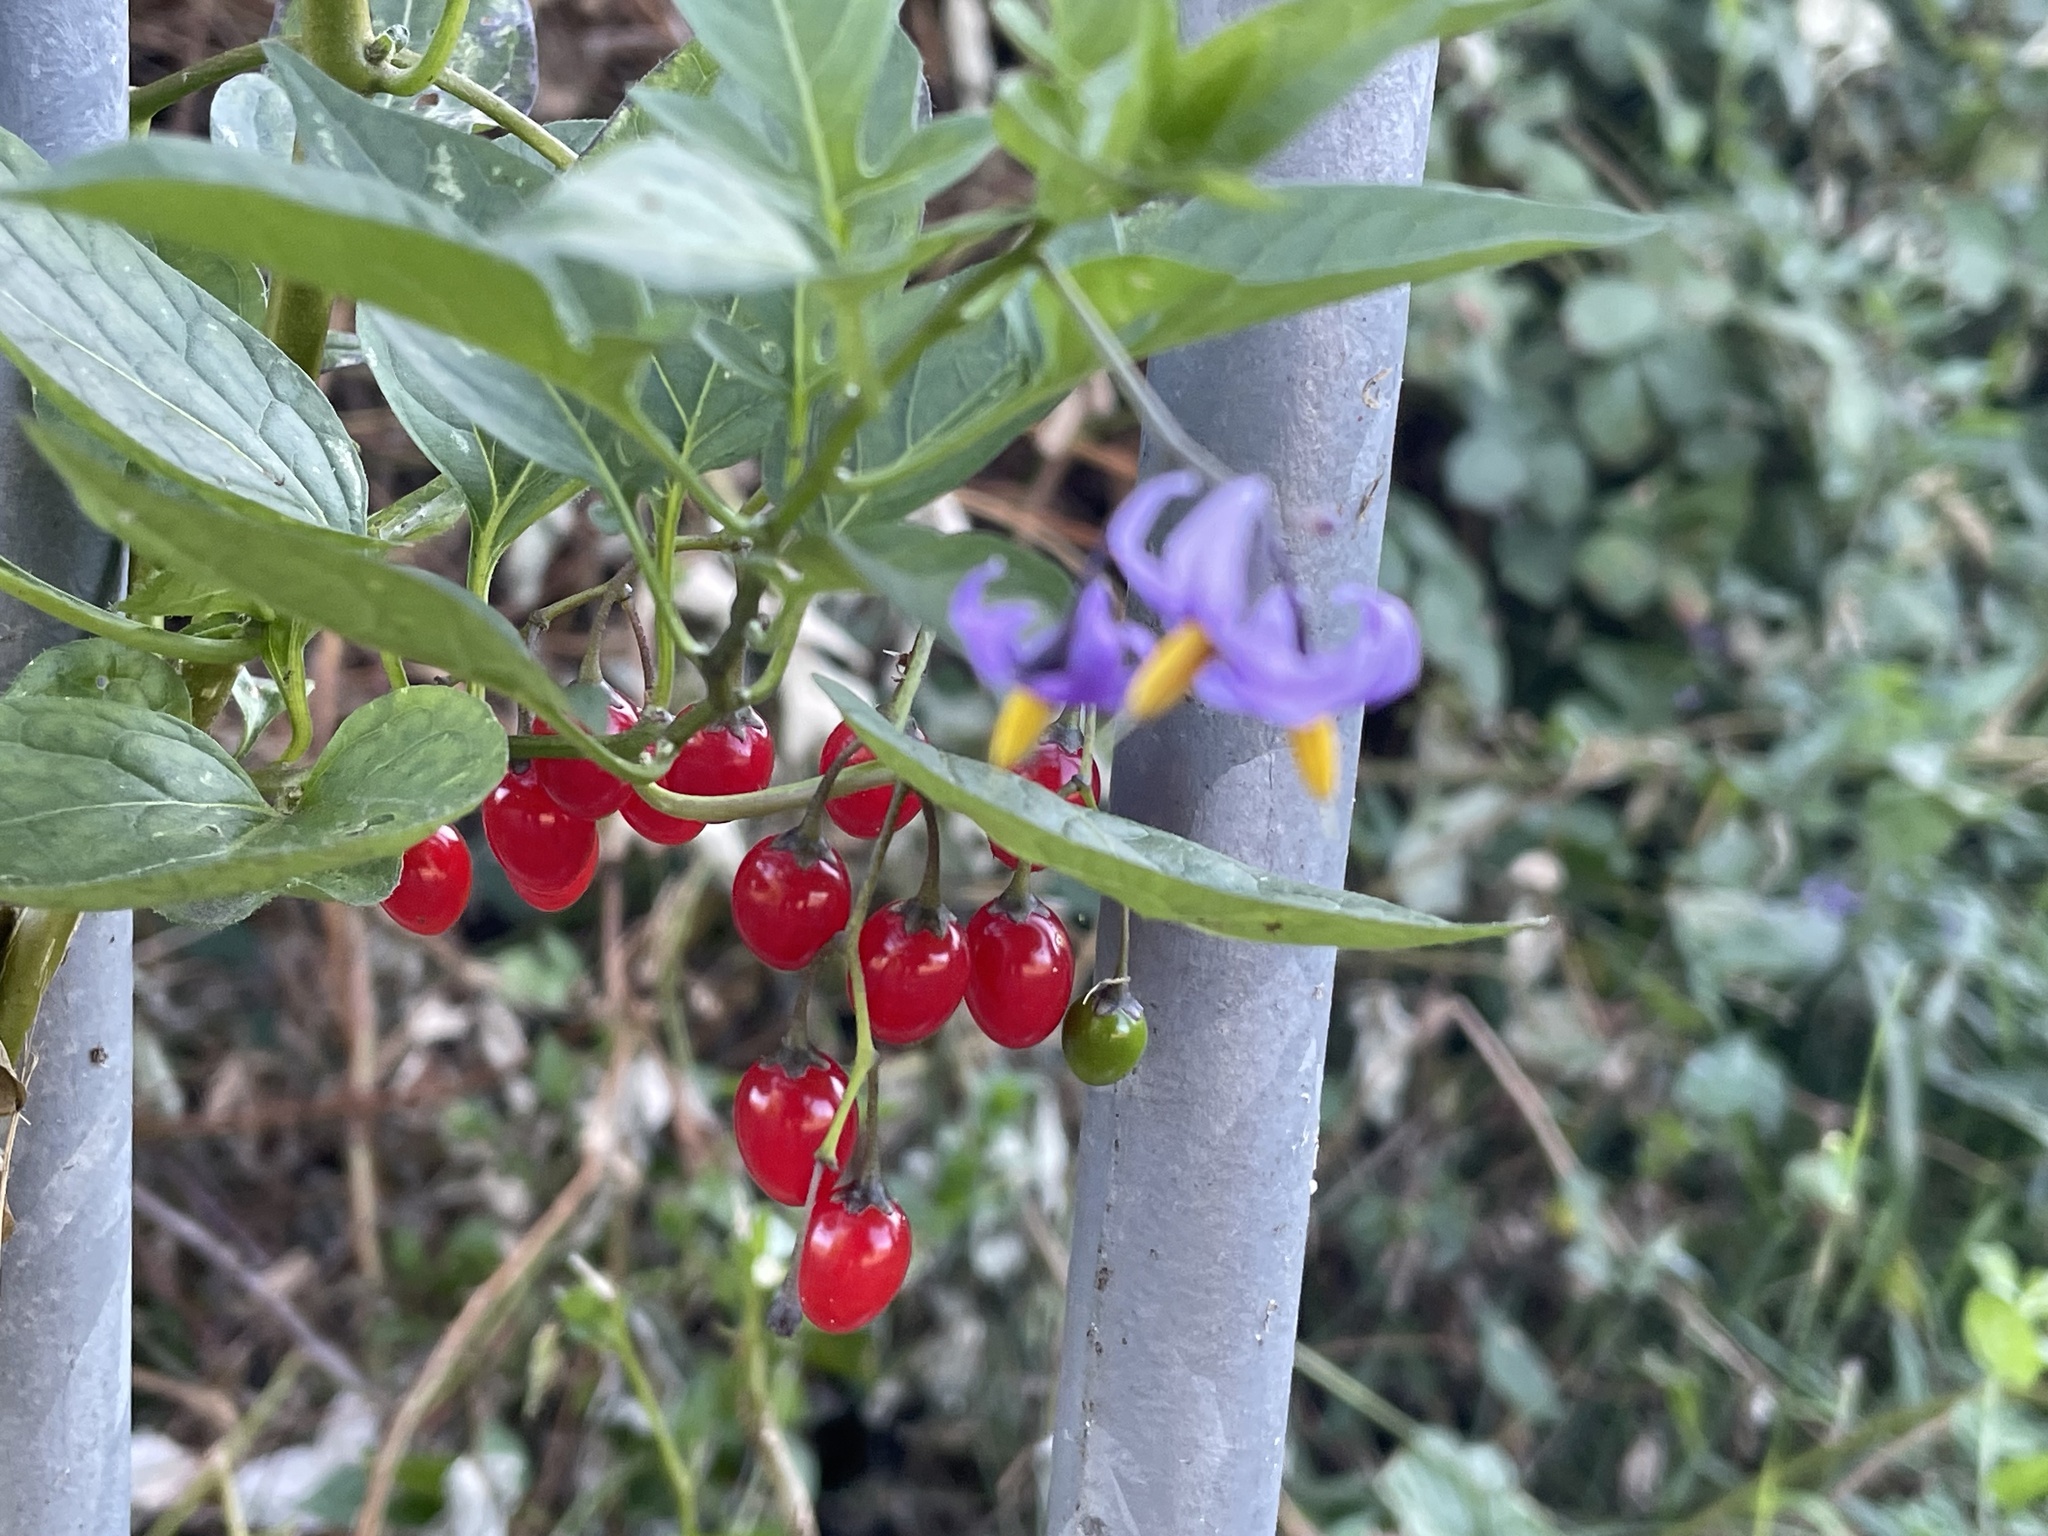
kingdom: Plantae
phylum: Tracheophyta
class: Magnoliopsida
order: Solanales
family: Solanaceae
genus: Solanum
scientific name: Solanum dulcamara
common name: Climbing nightshade
